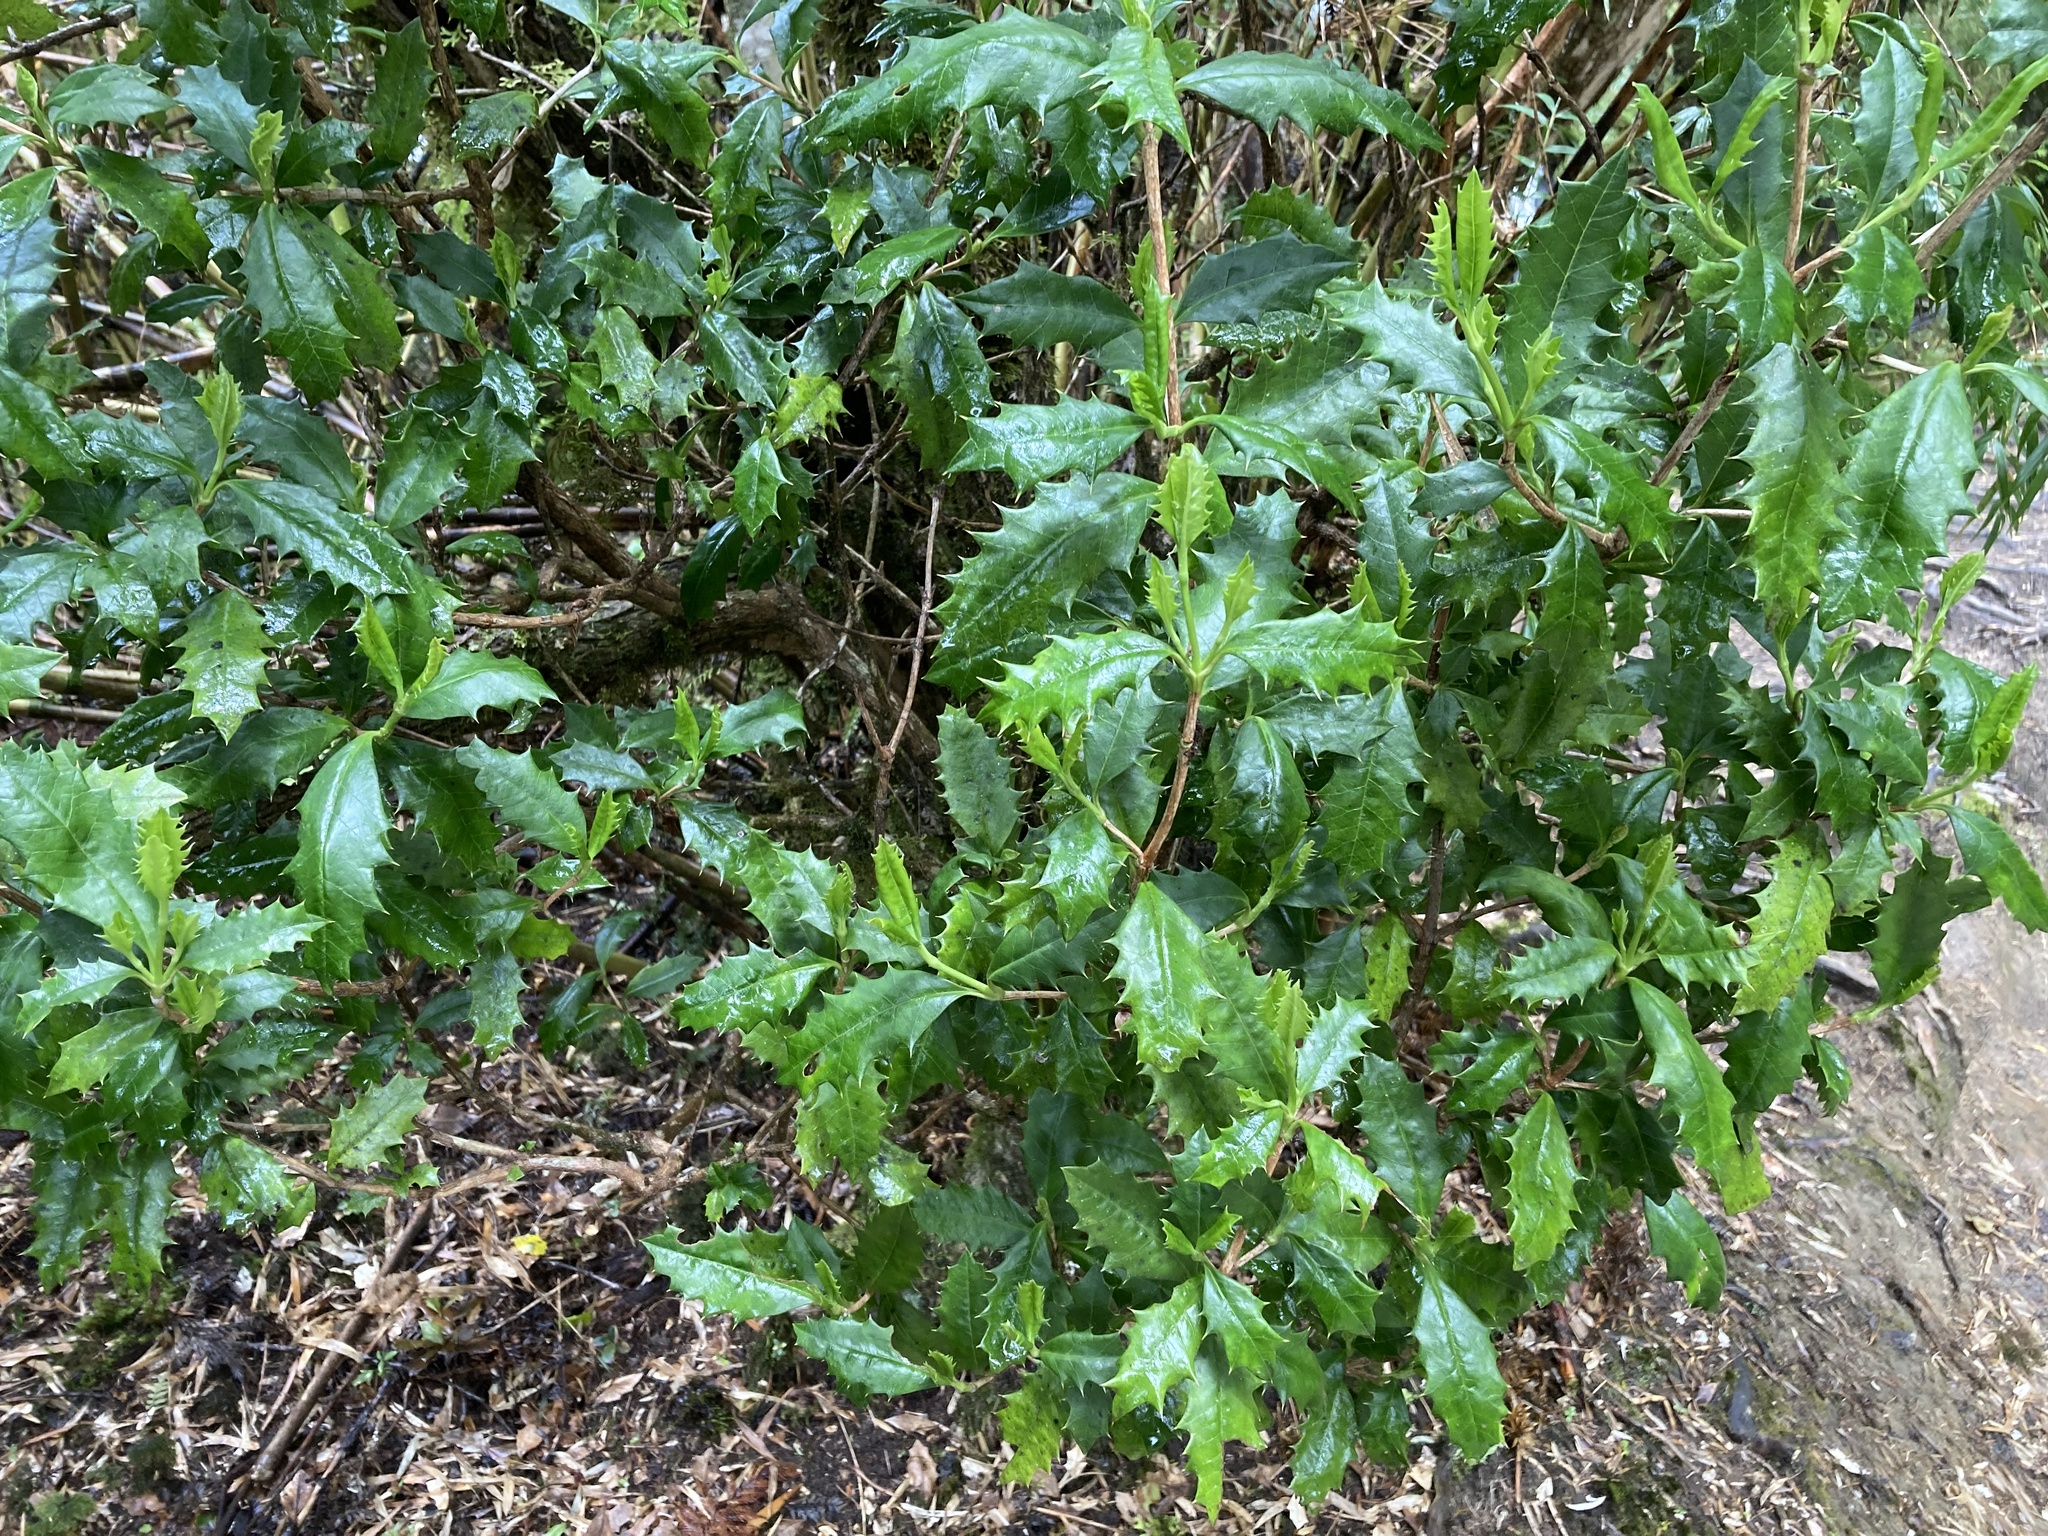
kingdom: Plantae
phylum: Tracheophyta
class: Magnoliopsida
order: Bruniales
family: Columelliaceae
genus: Desfontainia
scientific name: Desfontainia fulgens
